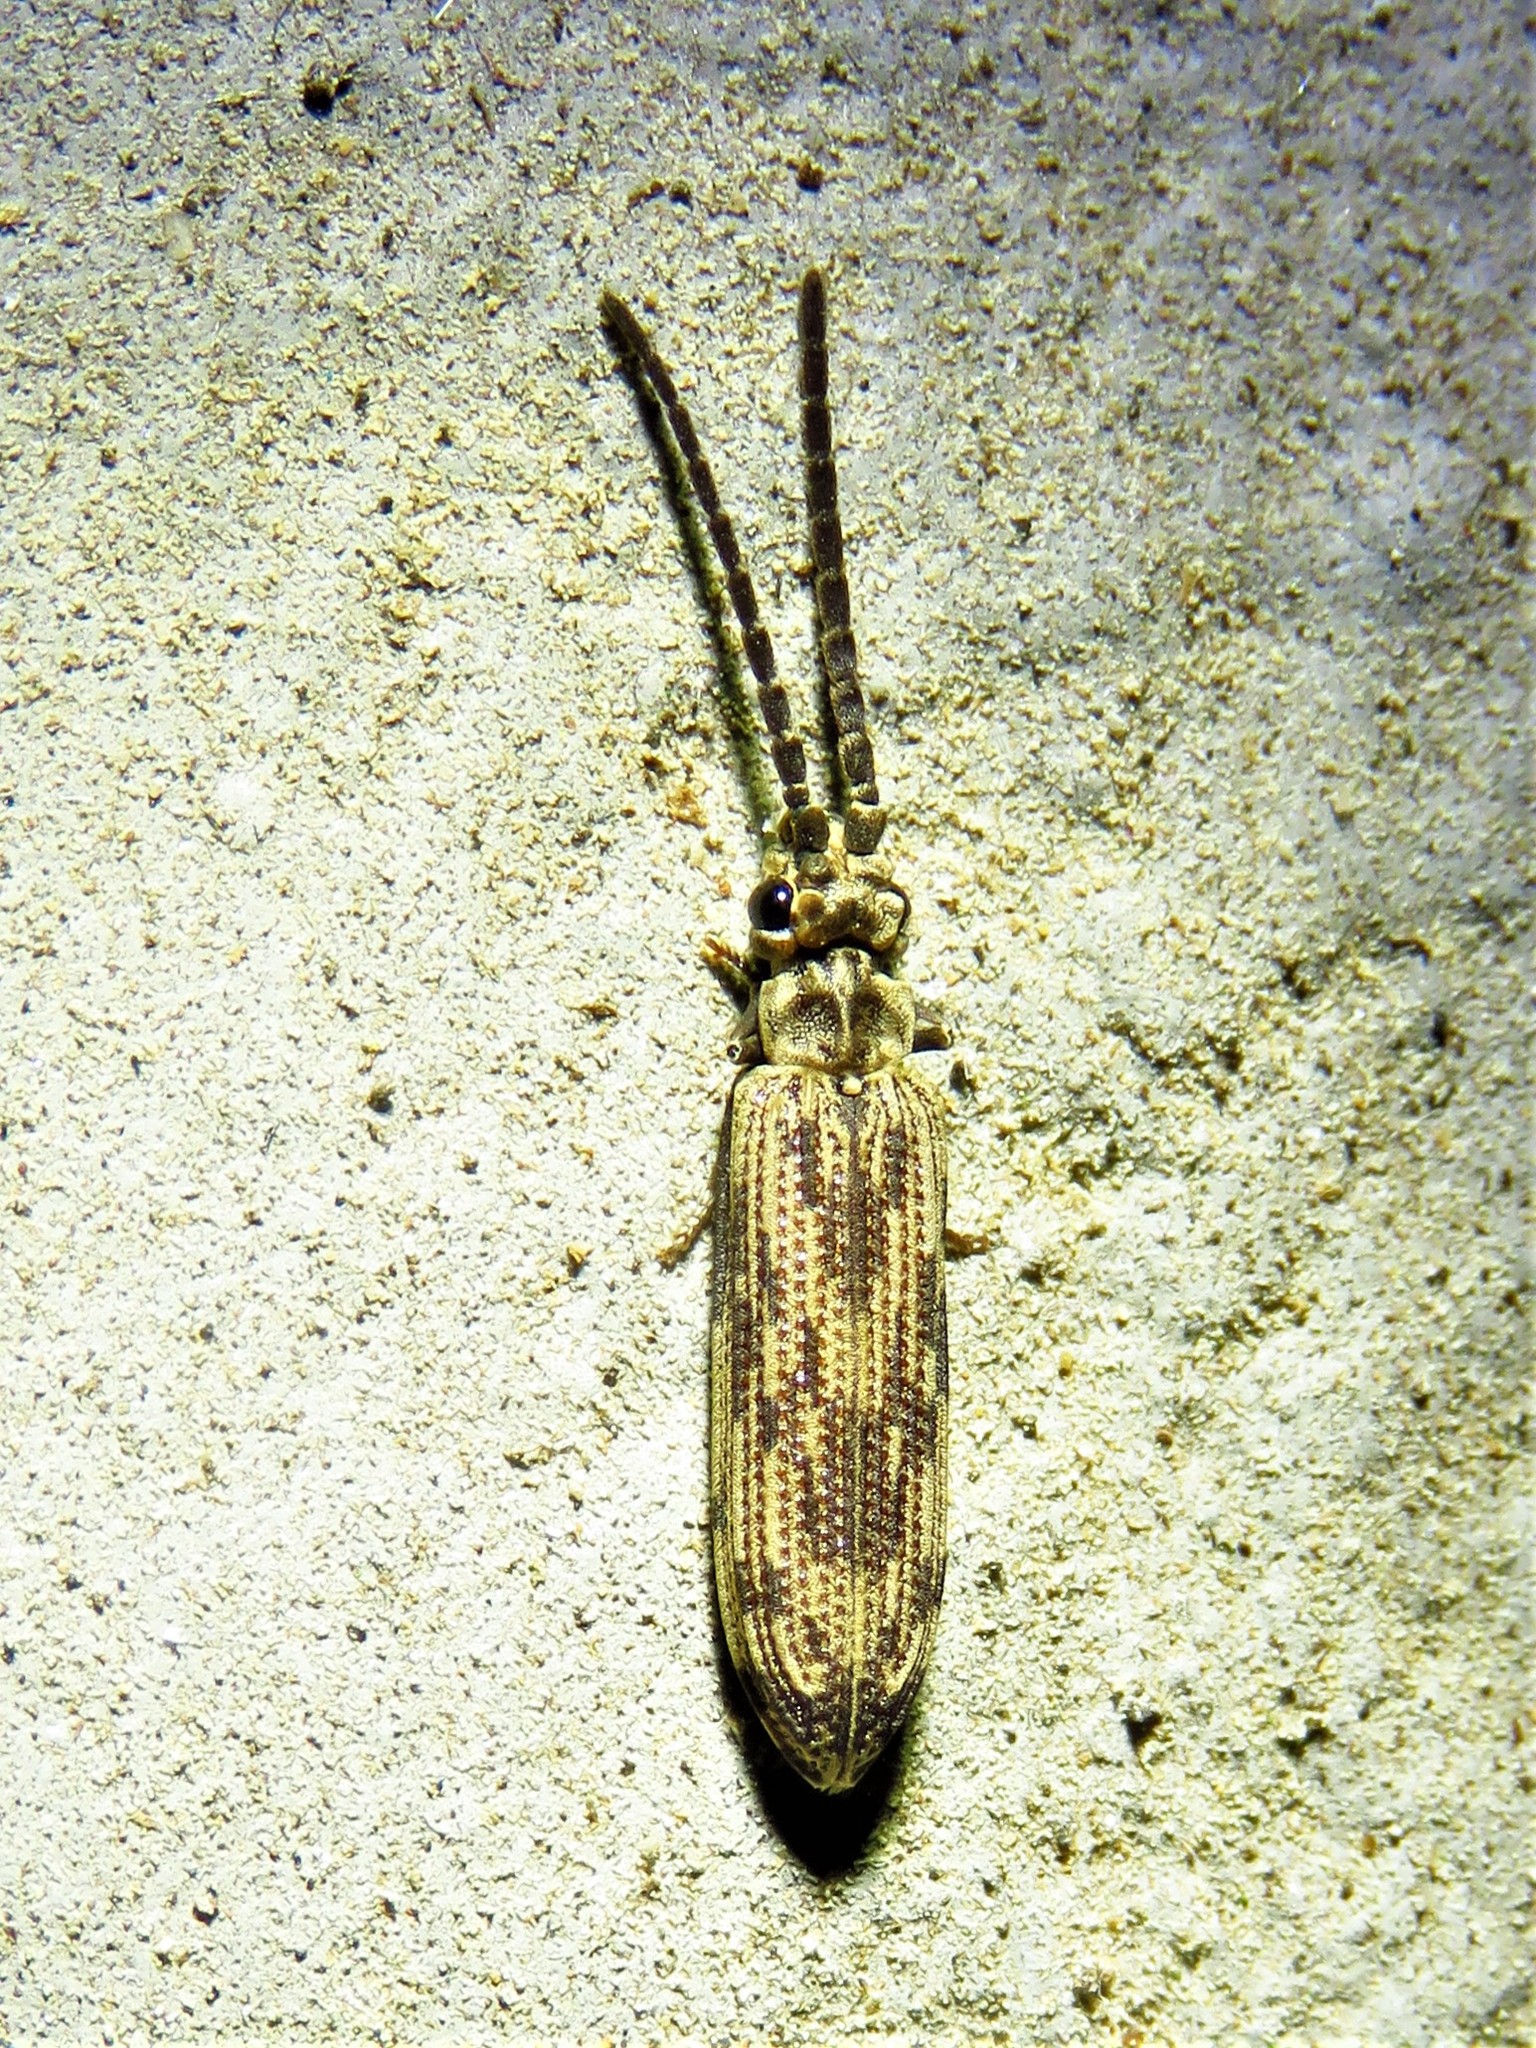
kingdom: Animalia
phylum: Arthropoda
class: Insecta
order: Coleoptera
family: Cupedidae
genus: Tenomerga
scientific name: Tenomerga cinerea
